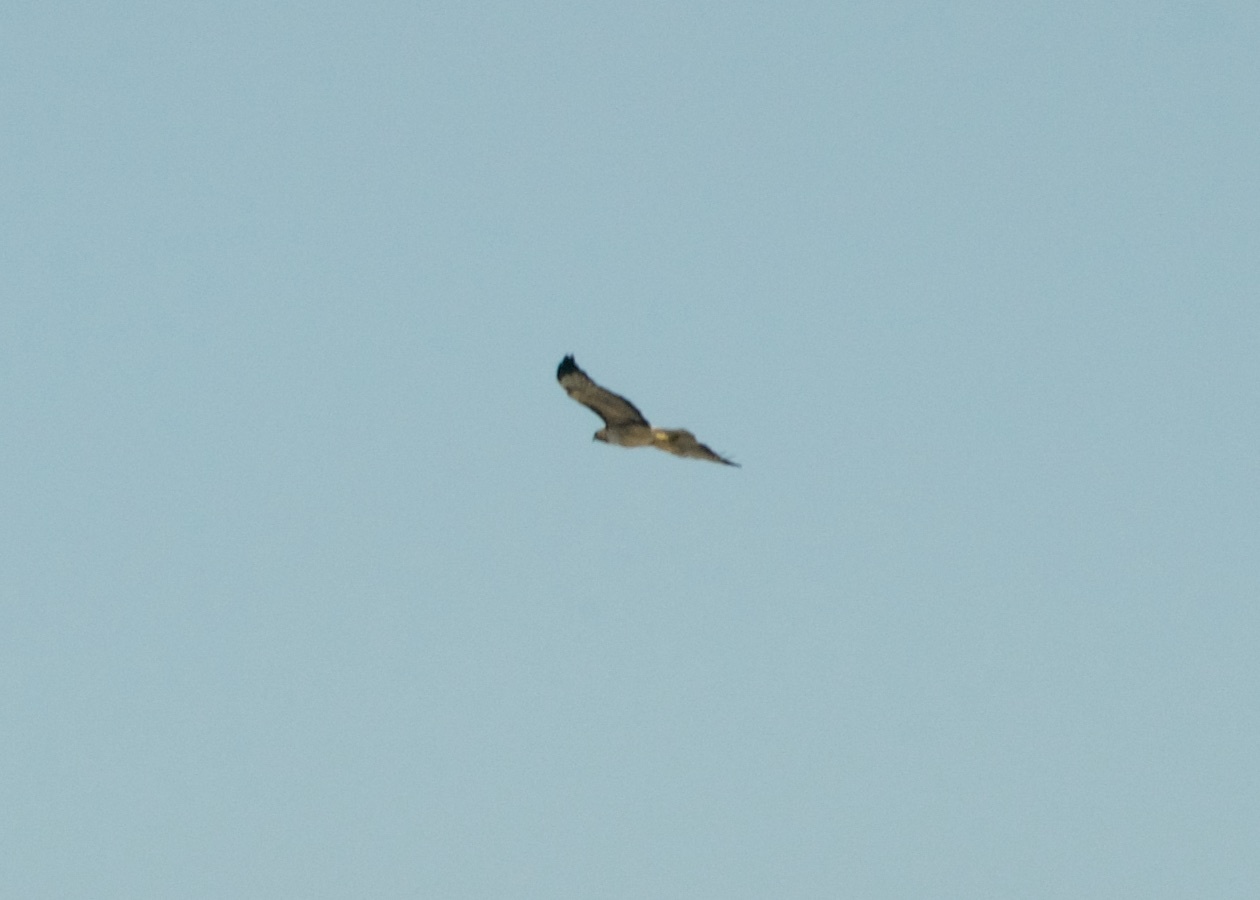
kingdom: Animalia
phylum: Chordata
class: Aves
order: Accipitriformes
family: Accipitridae
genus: Buteo
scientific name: Buteo jamaicensis
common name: Red-tailed hawk
